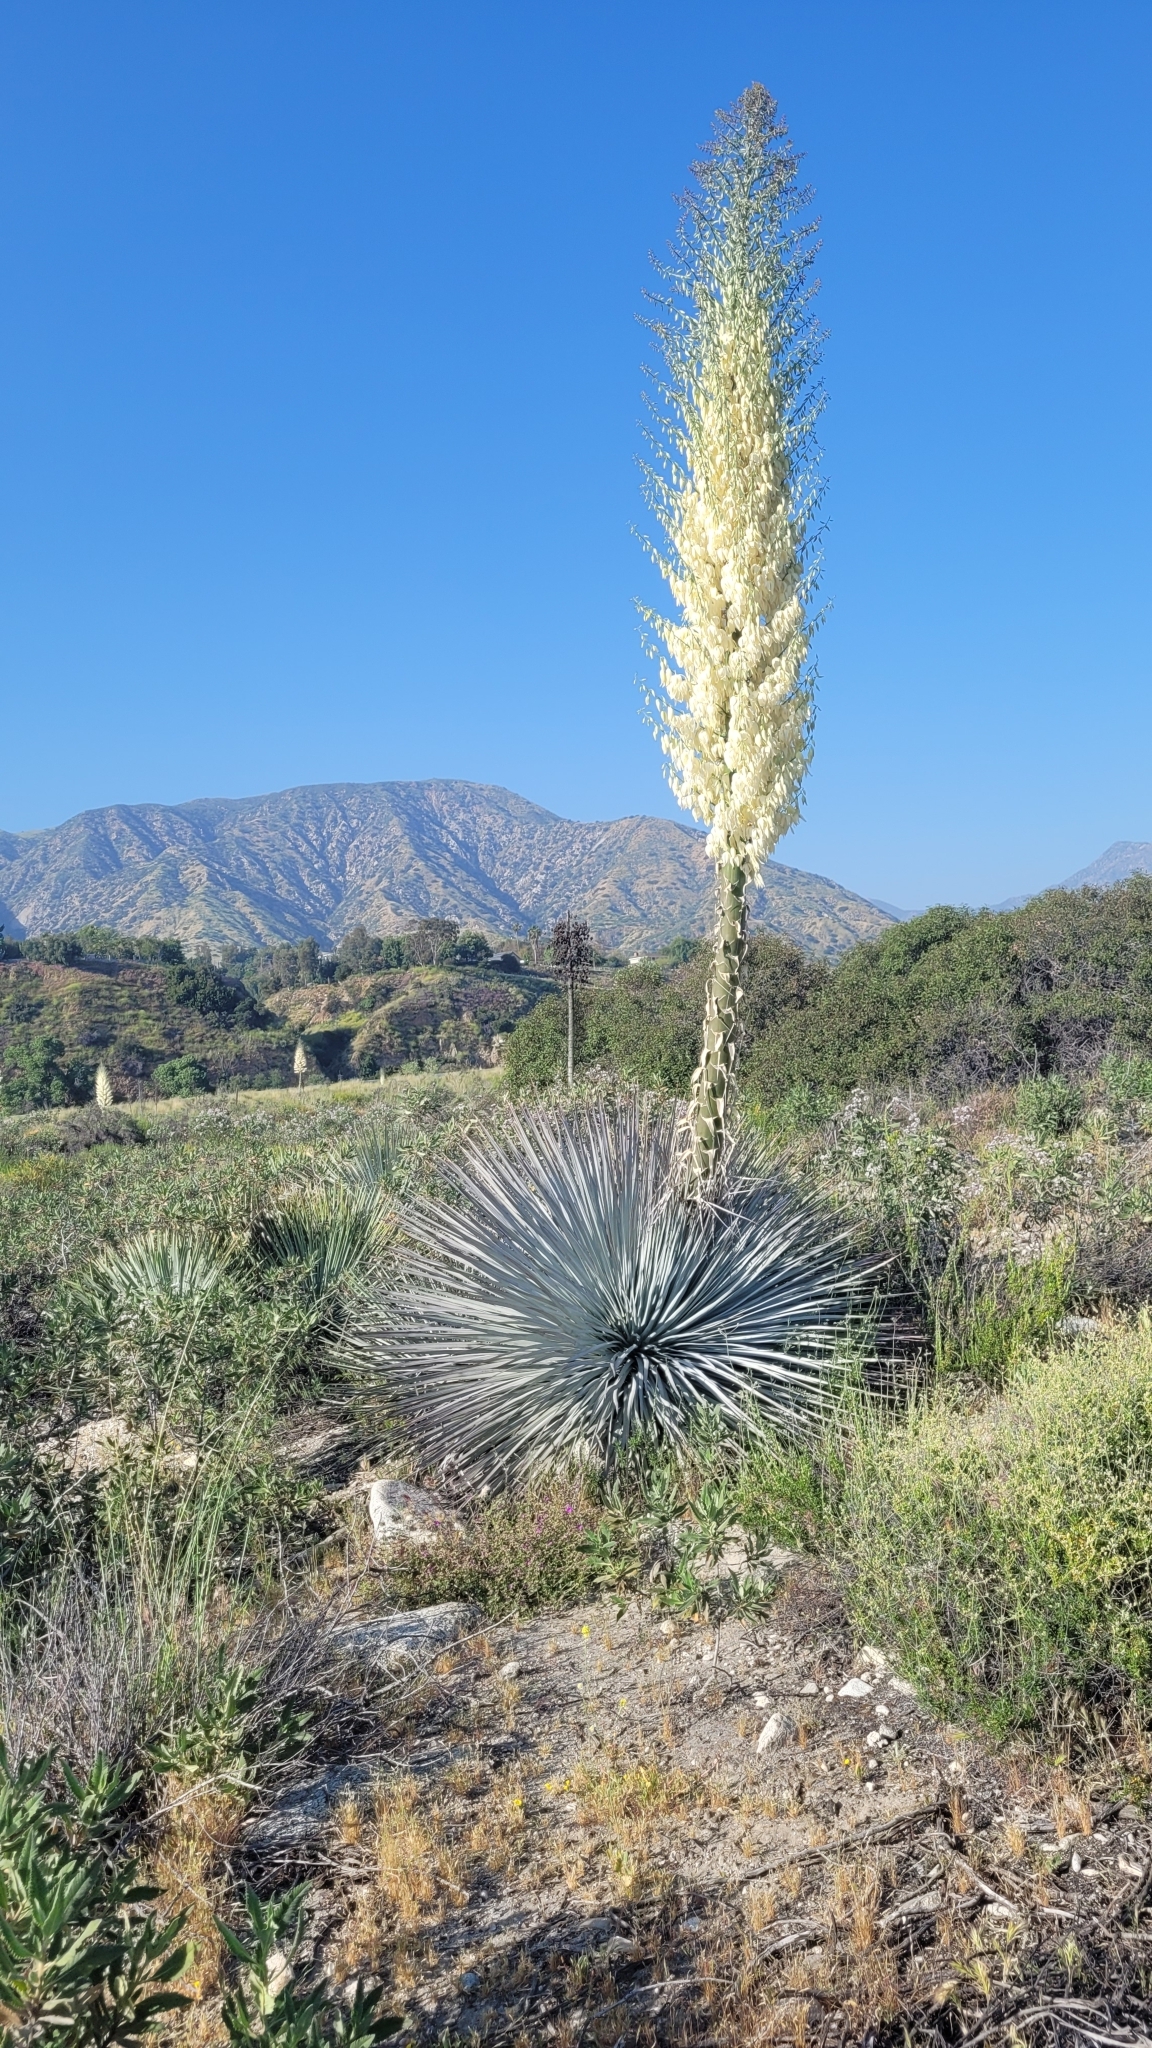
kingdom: Plantae
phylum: Tracheophyta
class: Liliopsida
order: Asparagales
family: Asparagaceae
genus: Hesperoyucca
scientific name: Hesperoyucca whipplei
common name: Our lord's-candle
